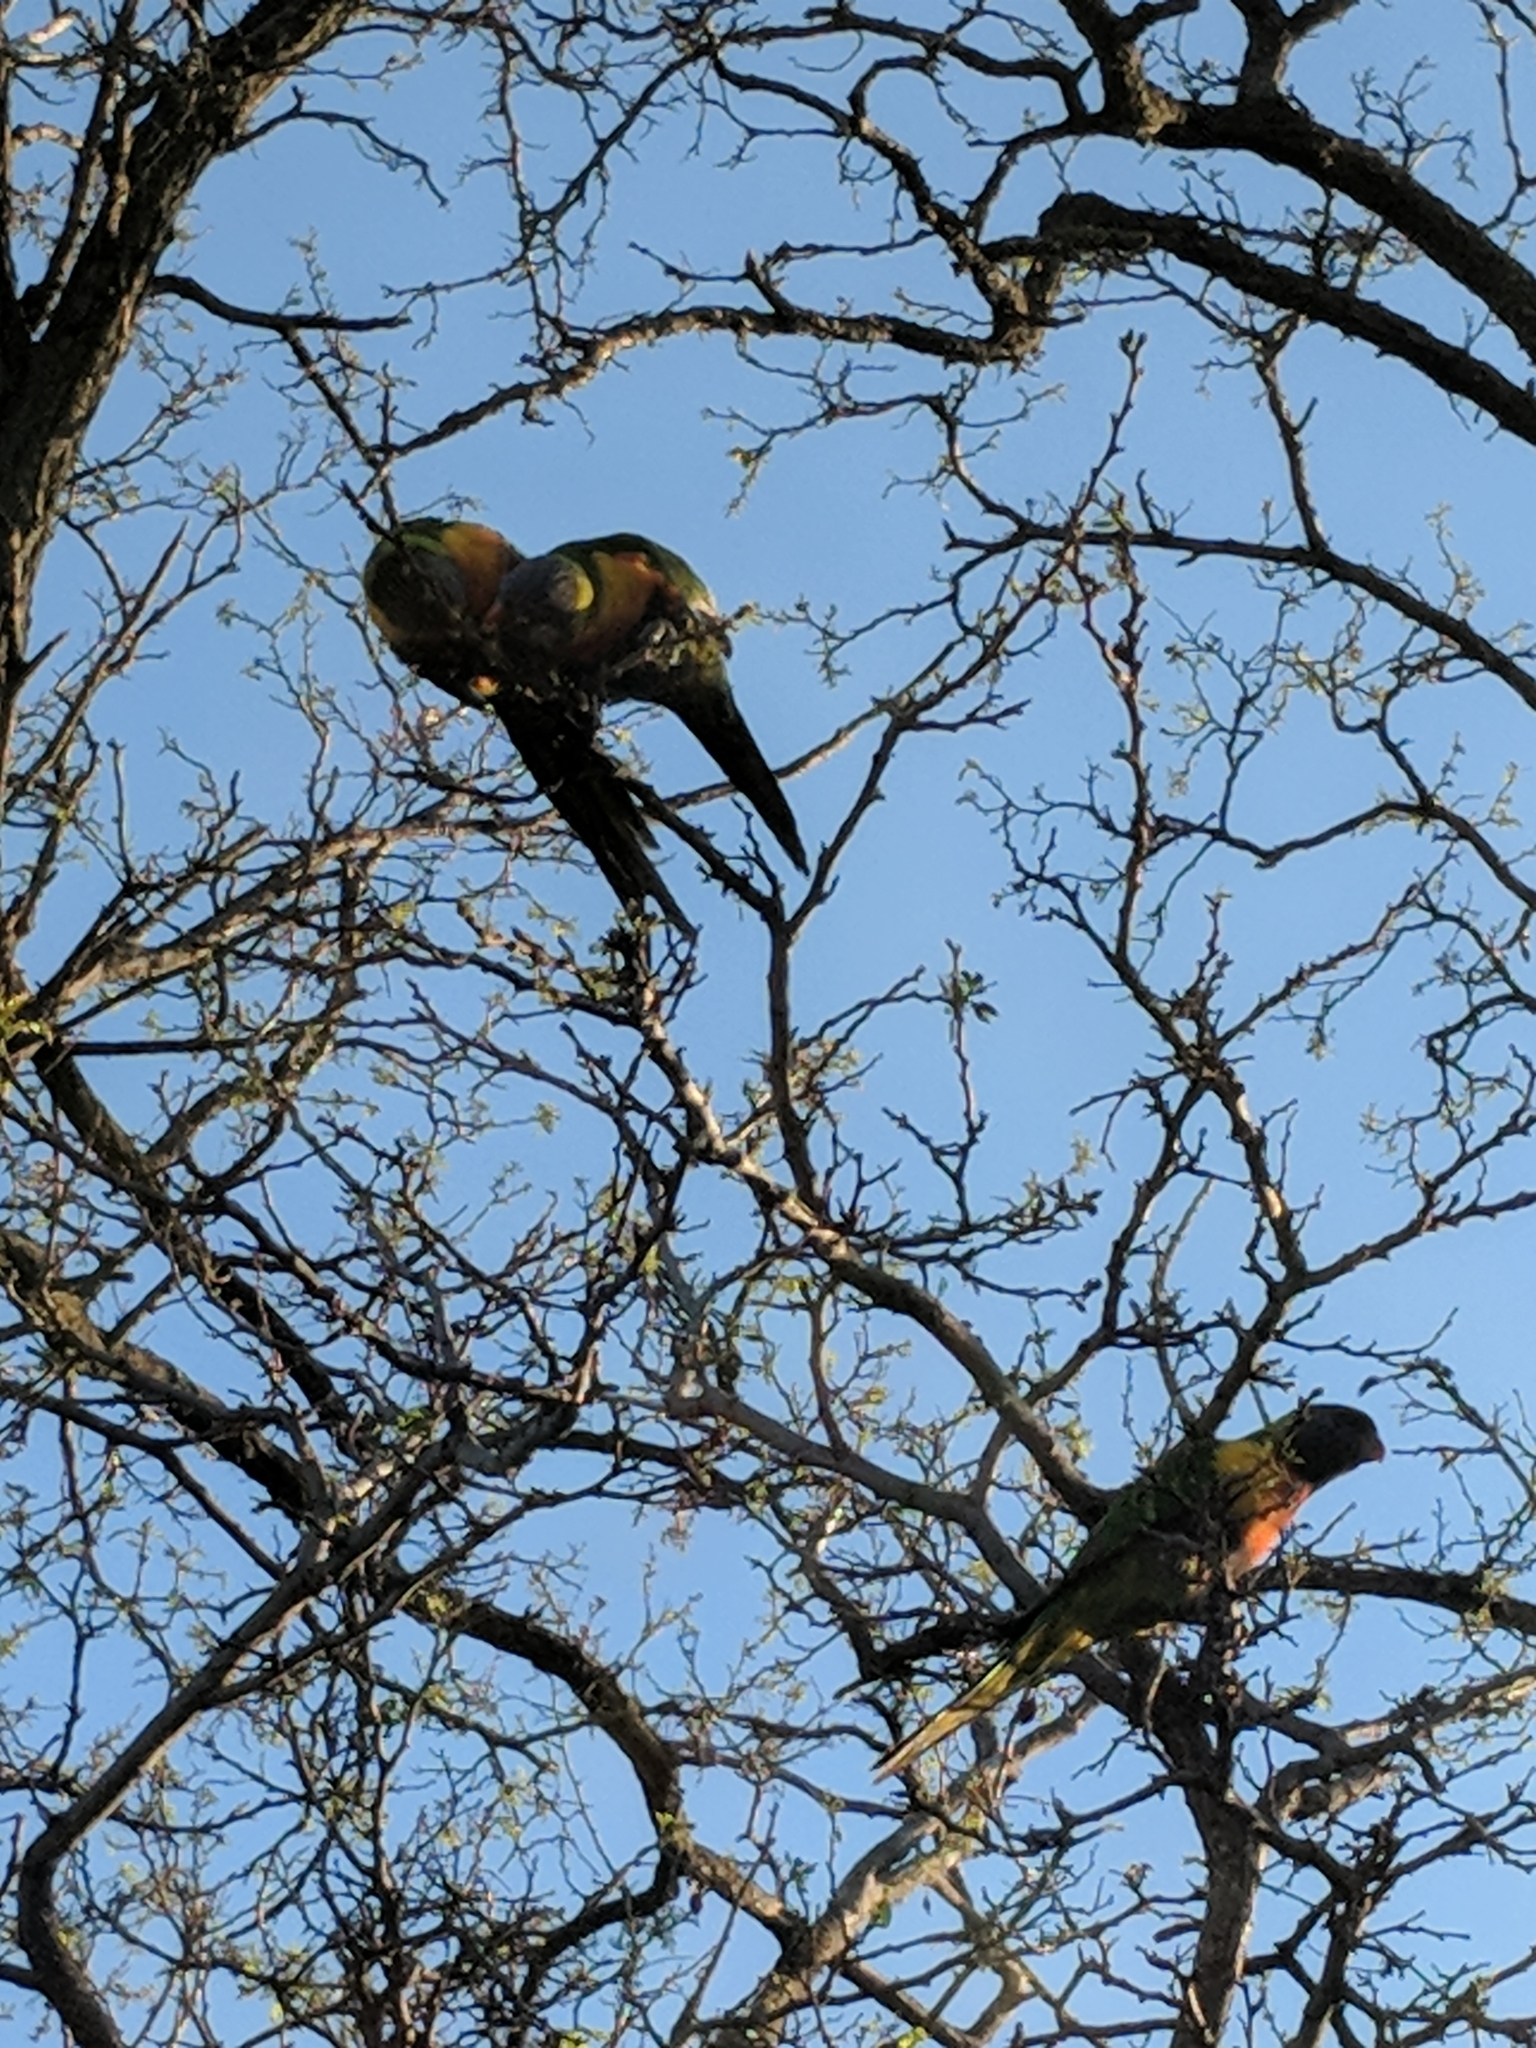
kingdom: Animalia
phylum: Chordata
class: Aves
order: Psittaciformes
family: Psittacidae
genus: Trichoglossus
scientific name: Trichoglossus haematodus
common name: Coconut lorikeet
